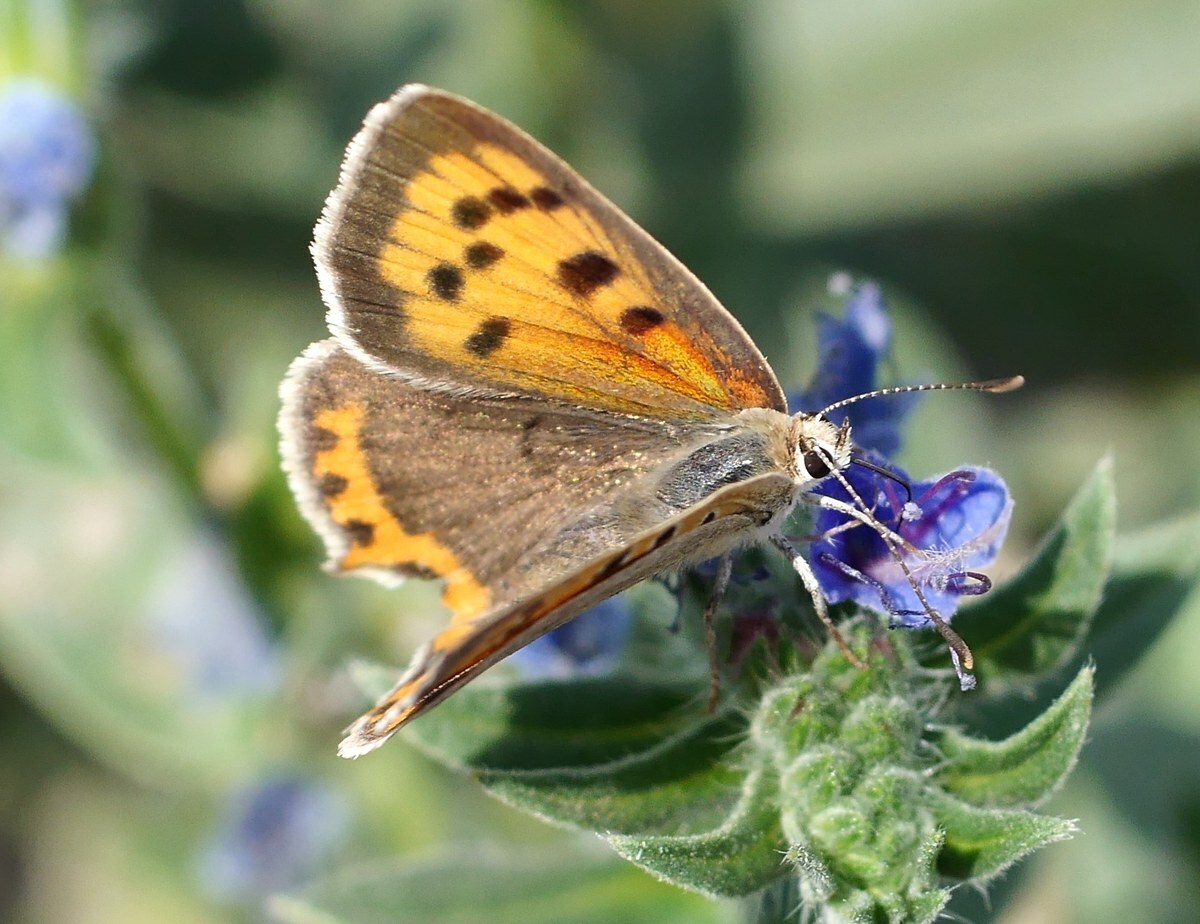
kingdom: Animalia
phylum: Arthropoda
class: Insecta
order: Lepidoptera
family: Lycaenidae
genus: Lycaena
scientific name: Lycaena phlaeas
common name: Small copper
